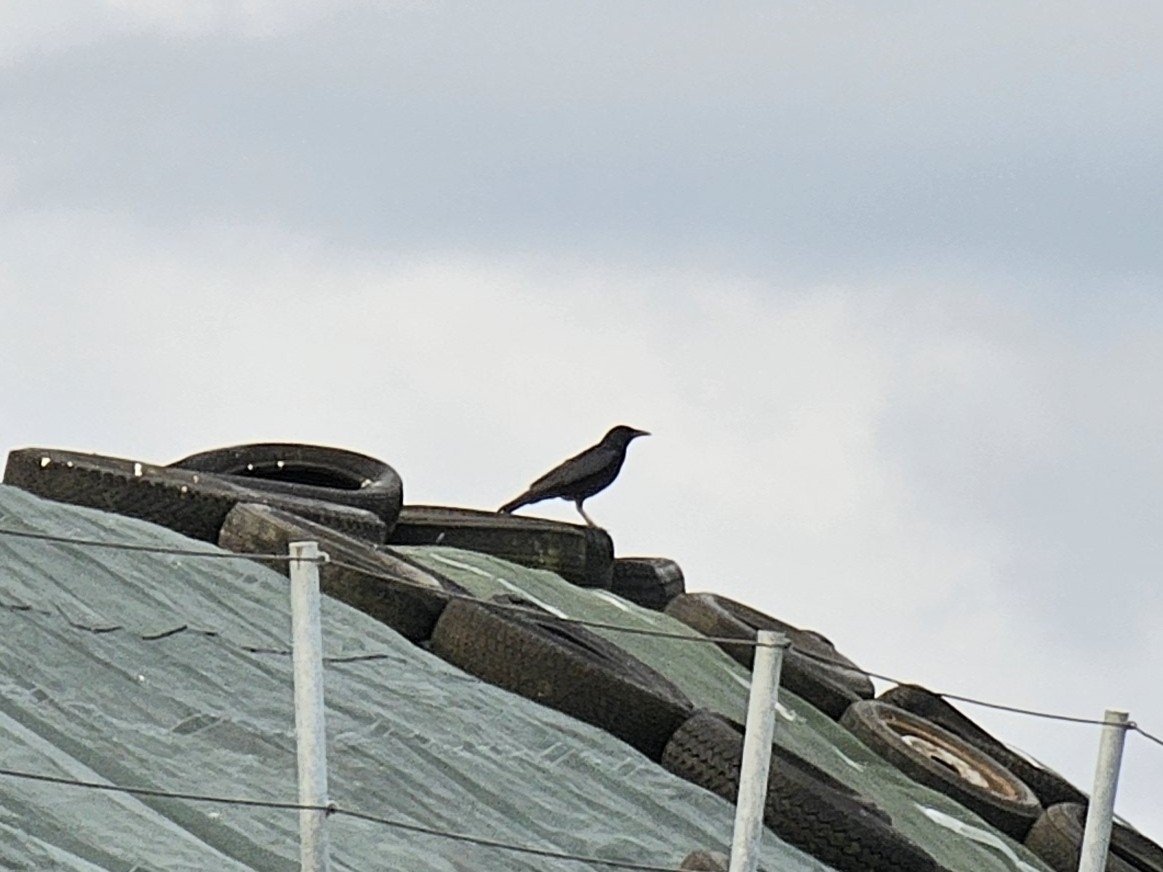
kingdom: Animalia
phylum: Chordata
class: Aves
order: Passeriformes
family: Corvidae
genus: Corvus
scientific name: Corvus corone
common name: Carrion crow
